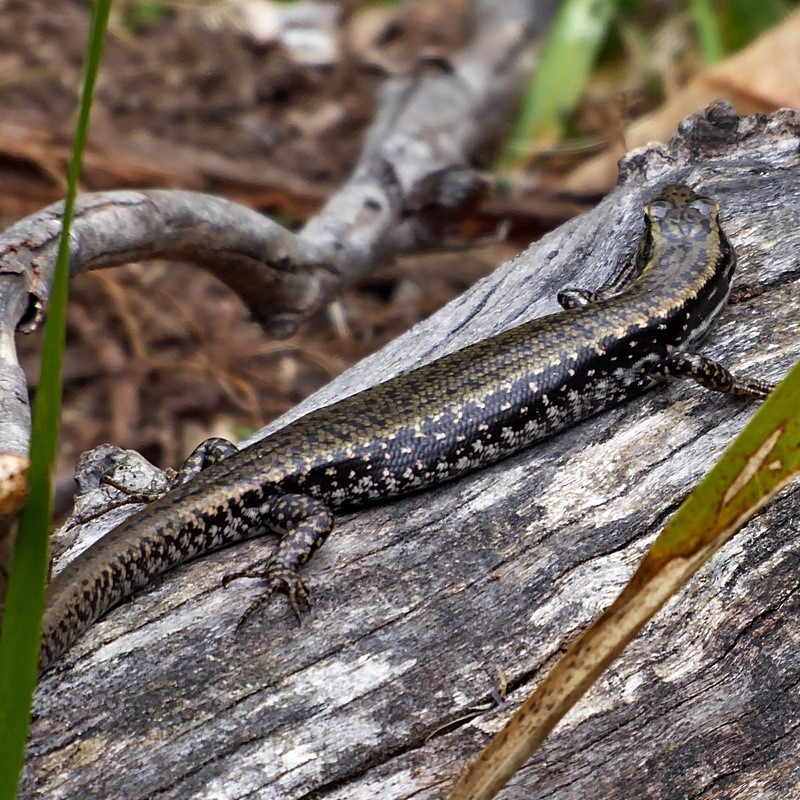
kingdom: Animalia
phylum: Chordata
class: Squamata
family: Scincidae
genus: Eulamprus
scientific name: Eulamprus heatwolei
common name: Warm-temperate water-skink
